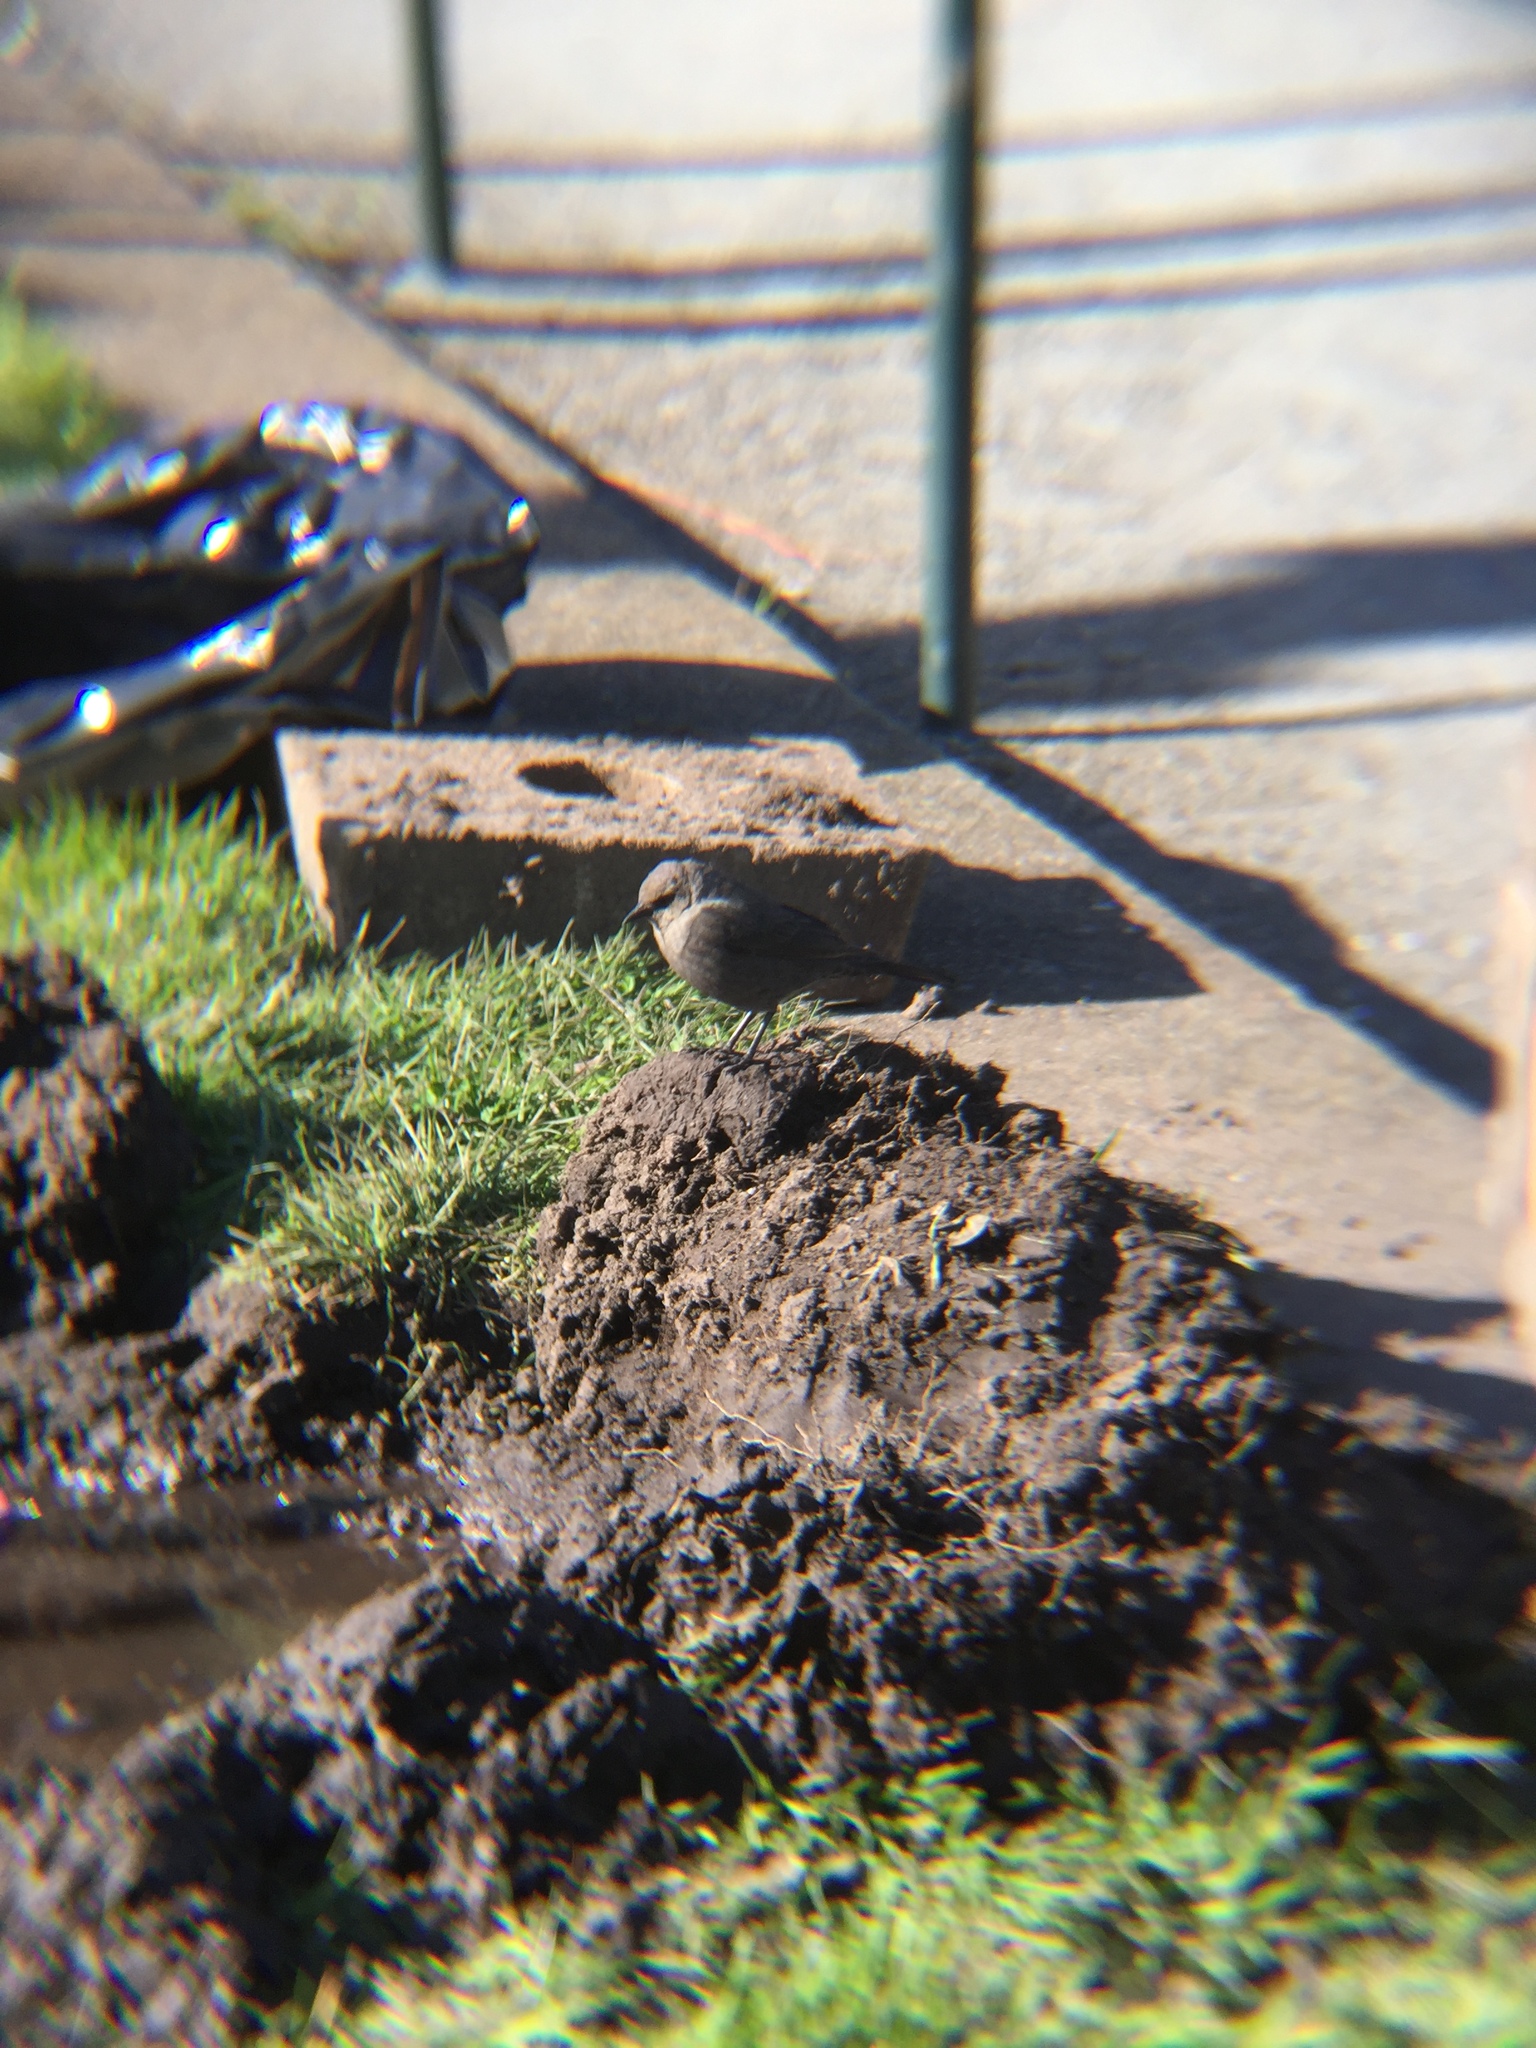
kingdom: Animalia
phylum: Chordata
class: Aves
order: Passeriformes
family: Icteridae
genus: Euphagus
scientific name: Euphagus cyanocephalus
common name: Brewer's blackbird
